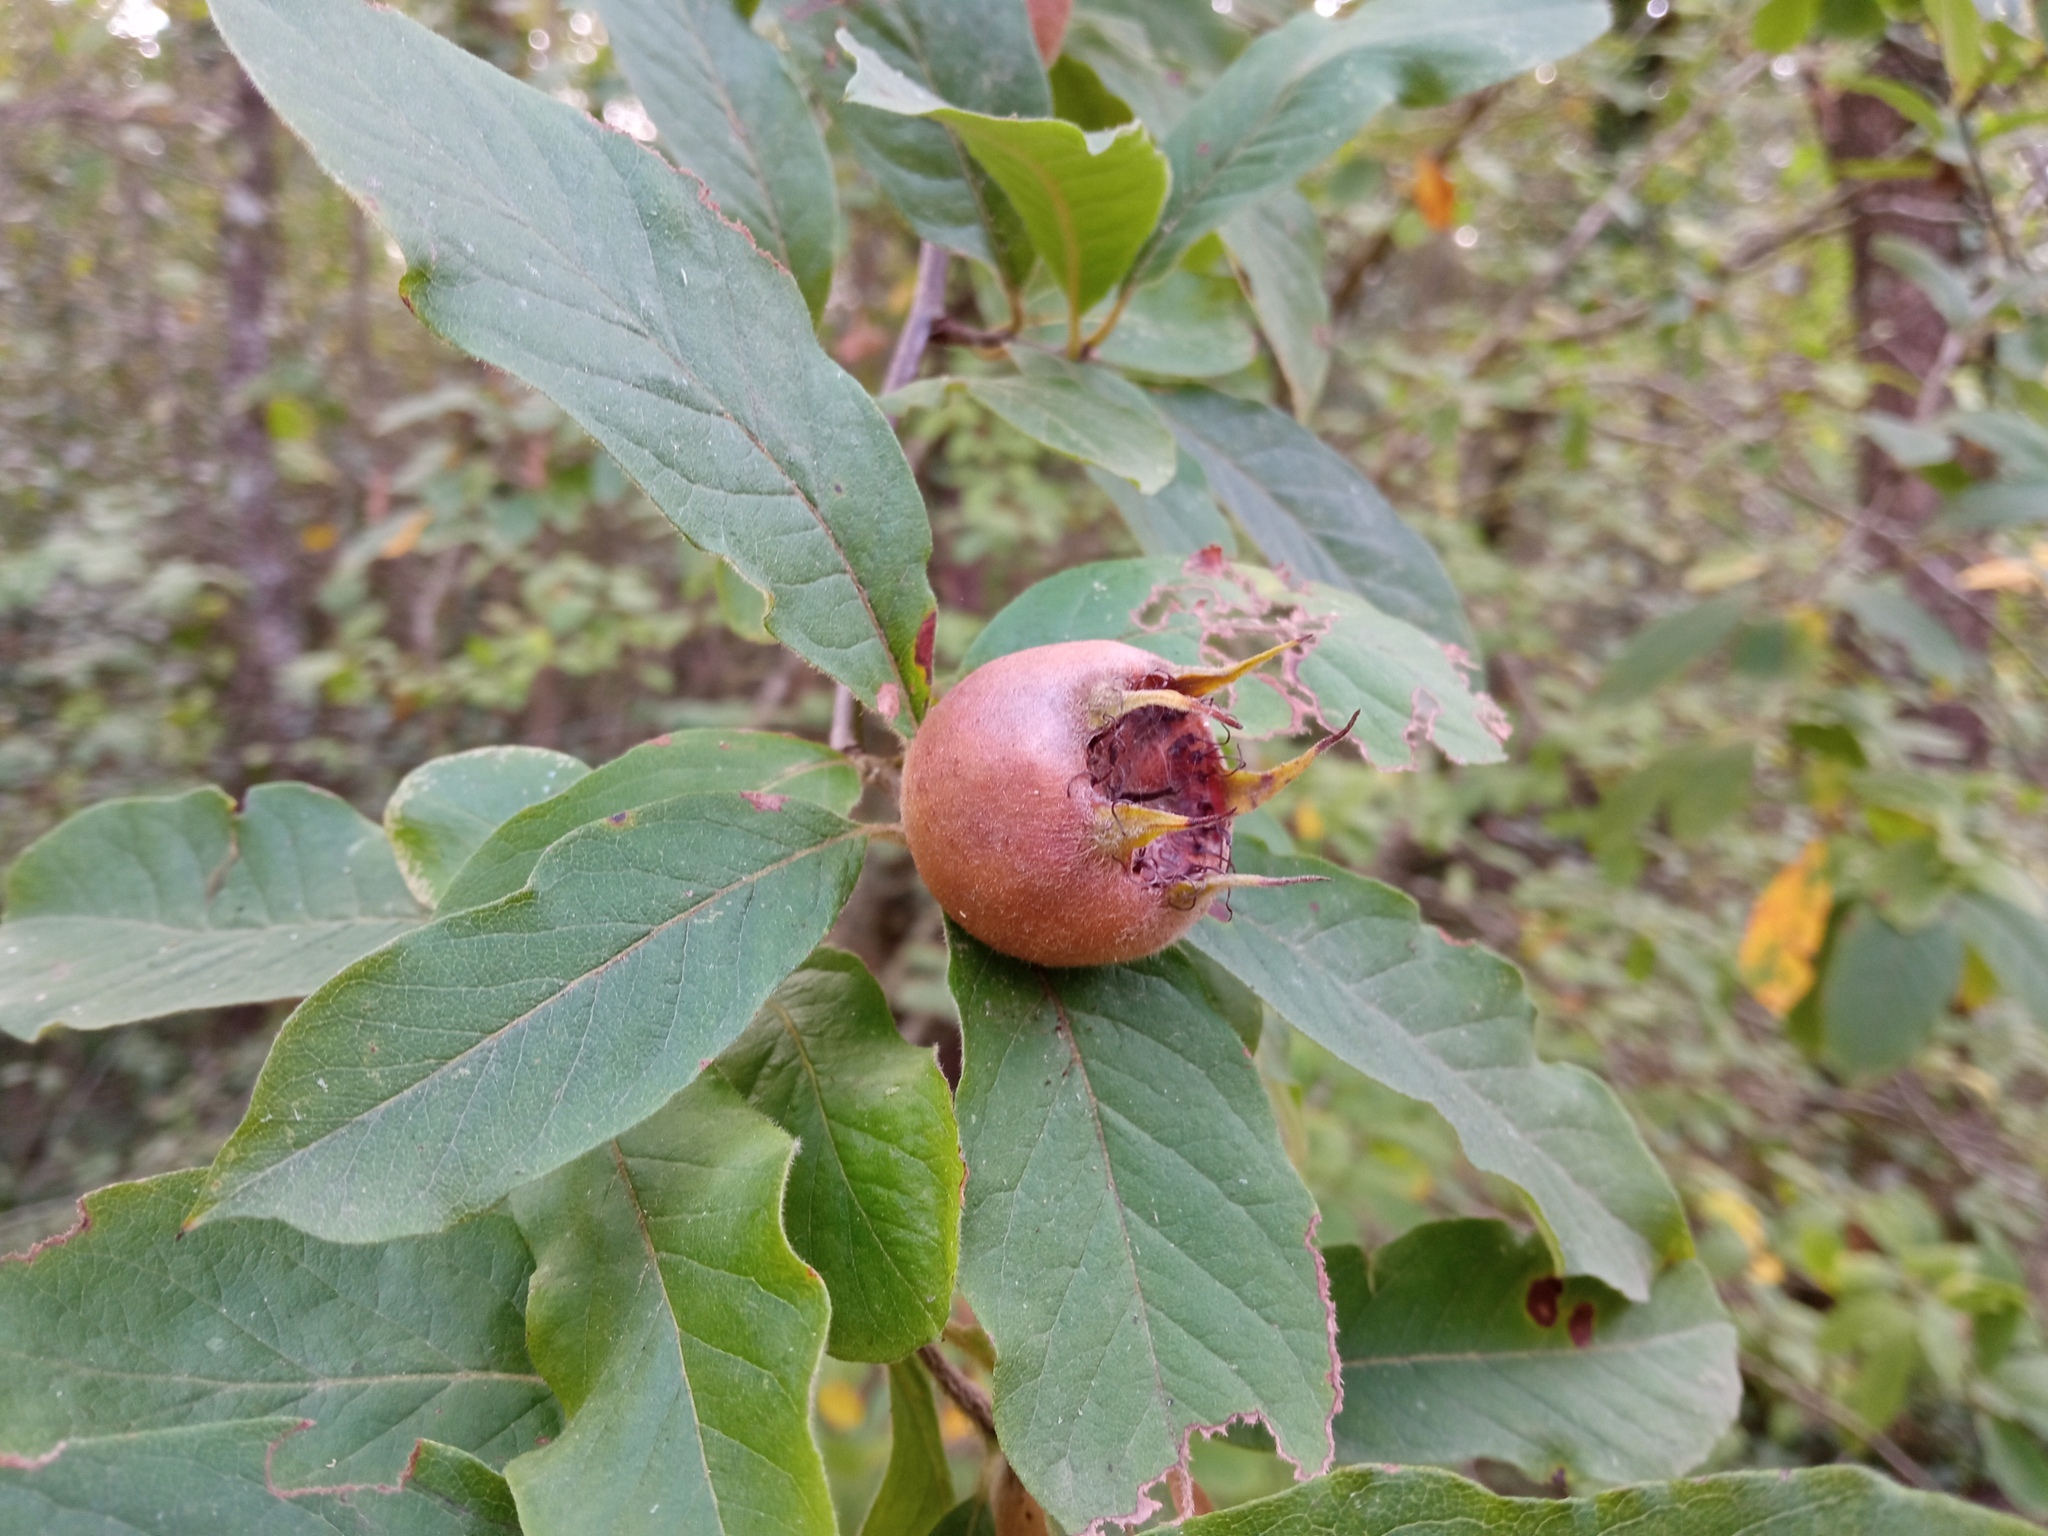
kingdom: Plantae
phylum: Tracheophyta
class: Magnoliopsida
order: Rosales
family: Rosaceae
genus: Mespilus
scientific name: Mespilus germanica
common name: Medlar
